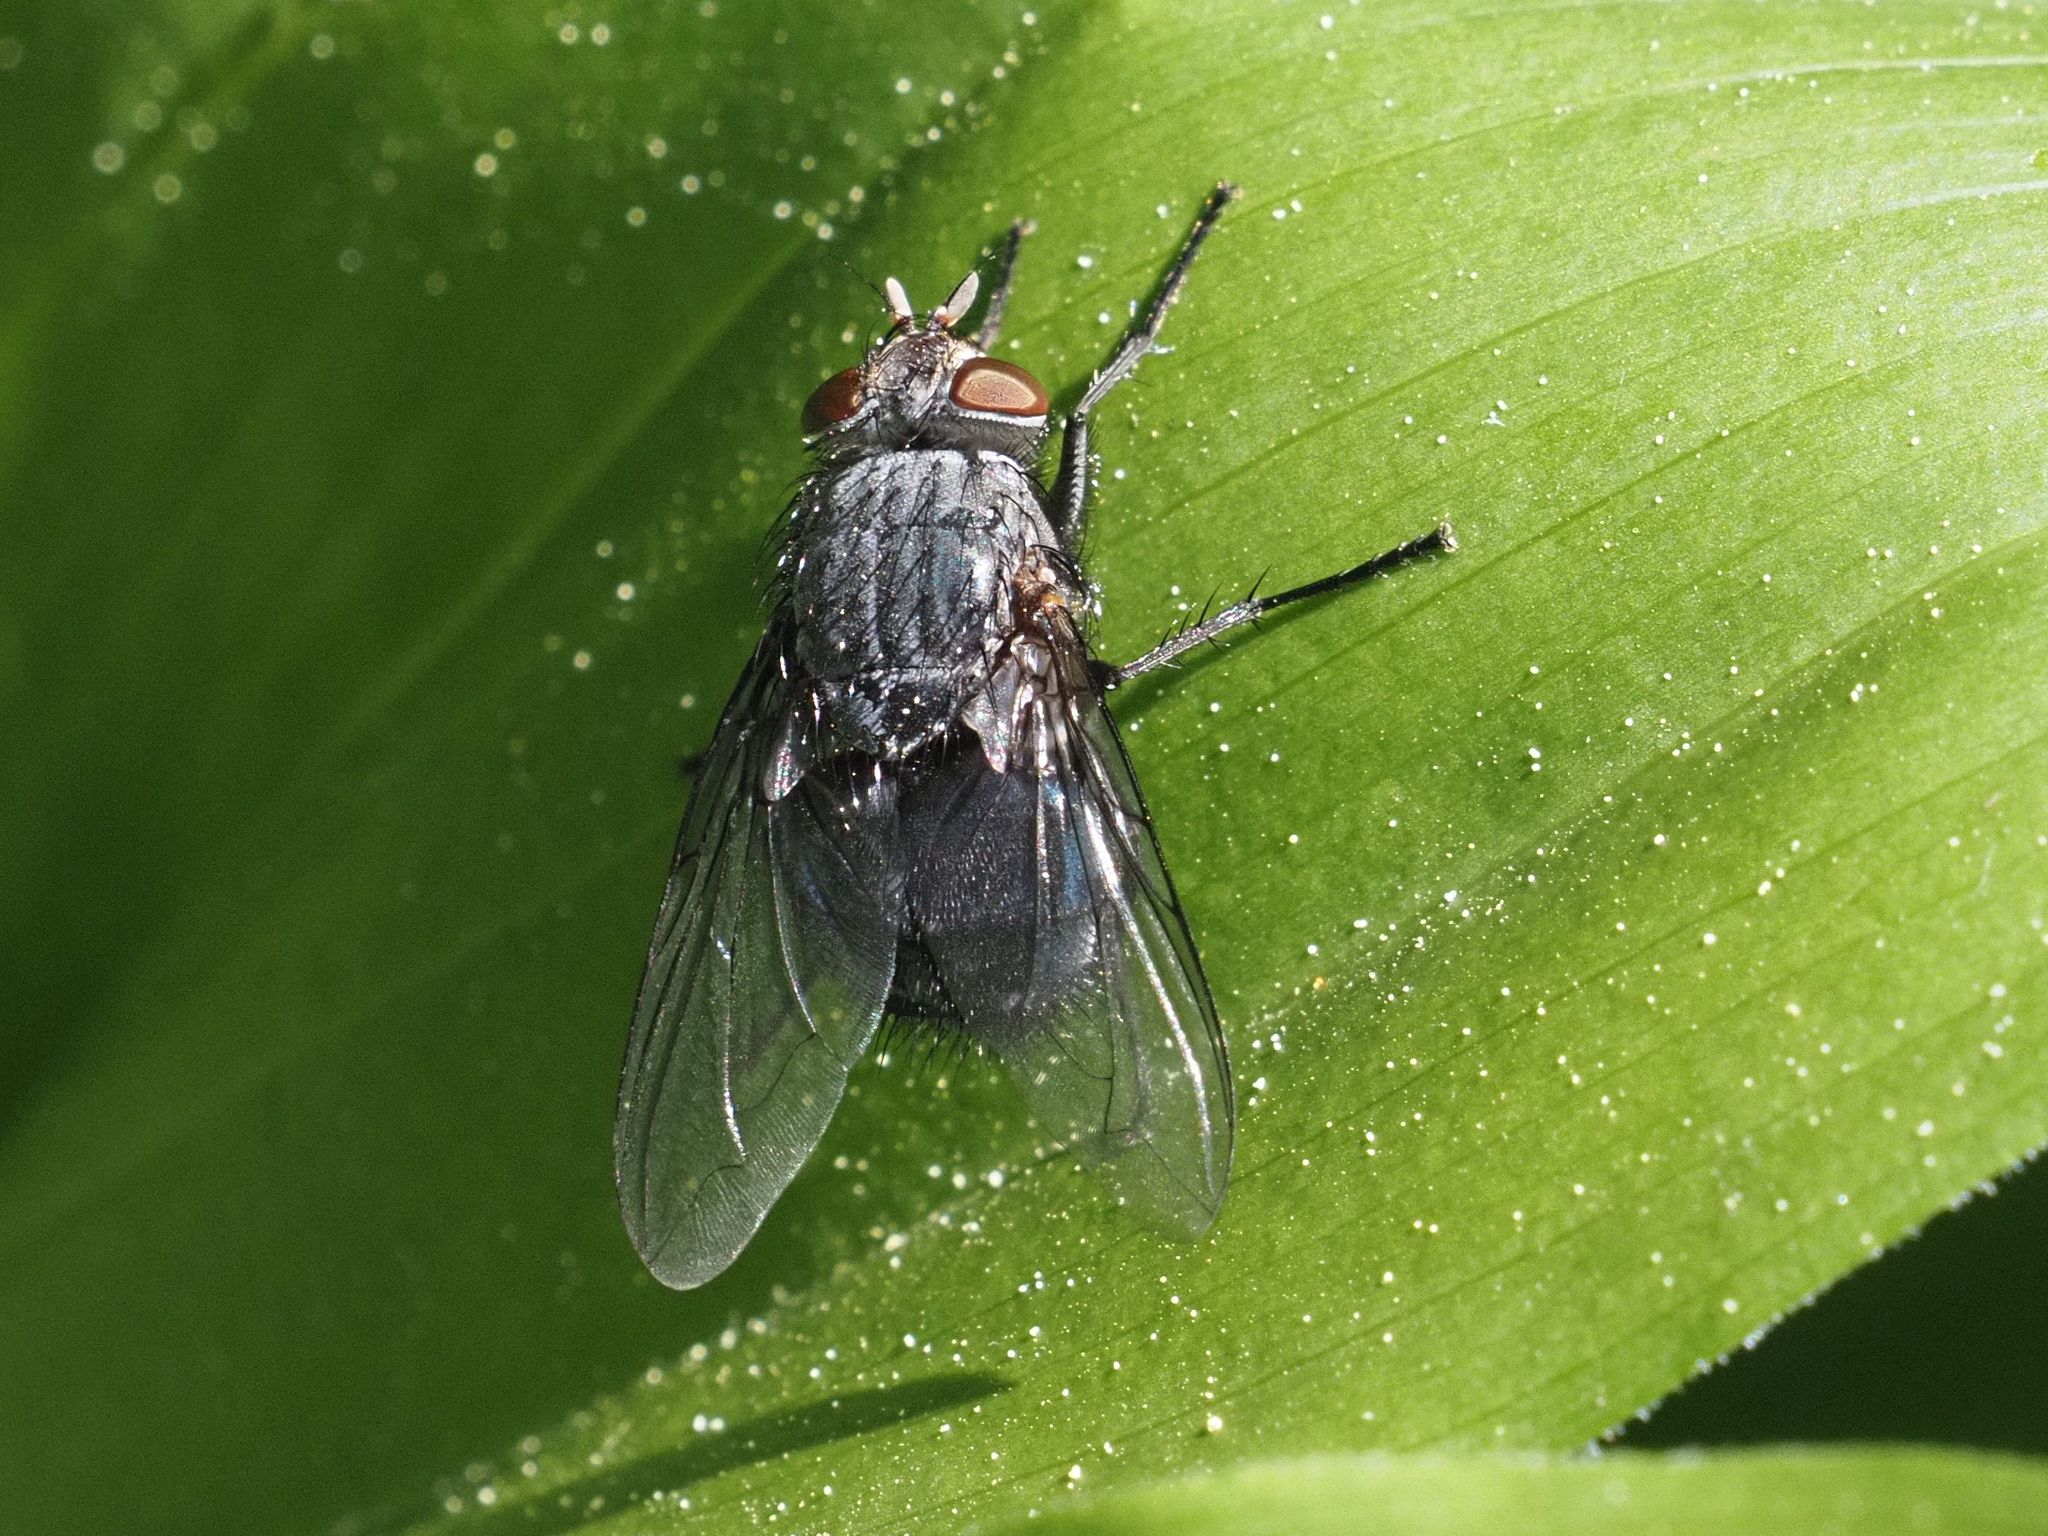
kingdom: Animalia
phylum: Arthropoda
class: Insecta
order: Diptera
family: Calliphoridae
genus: Calliphora
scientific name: Calliphora vicina
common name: Common blow flie
